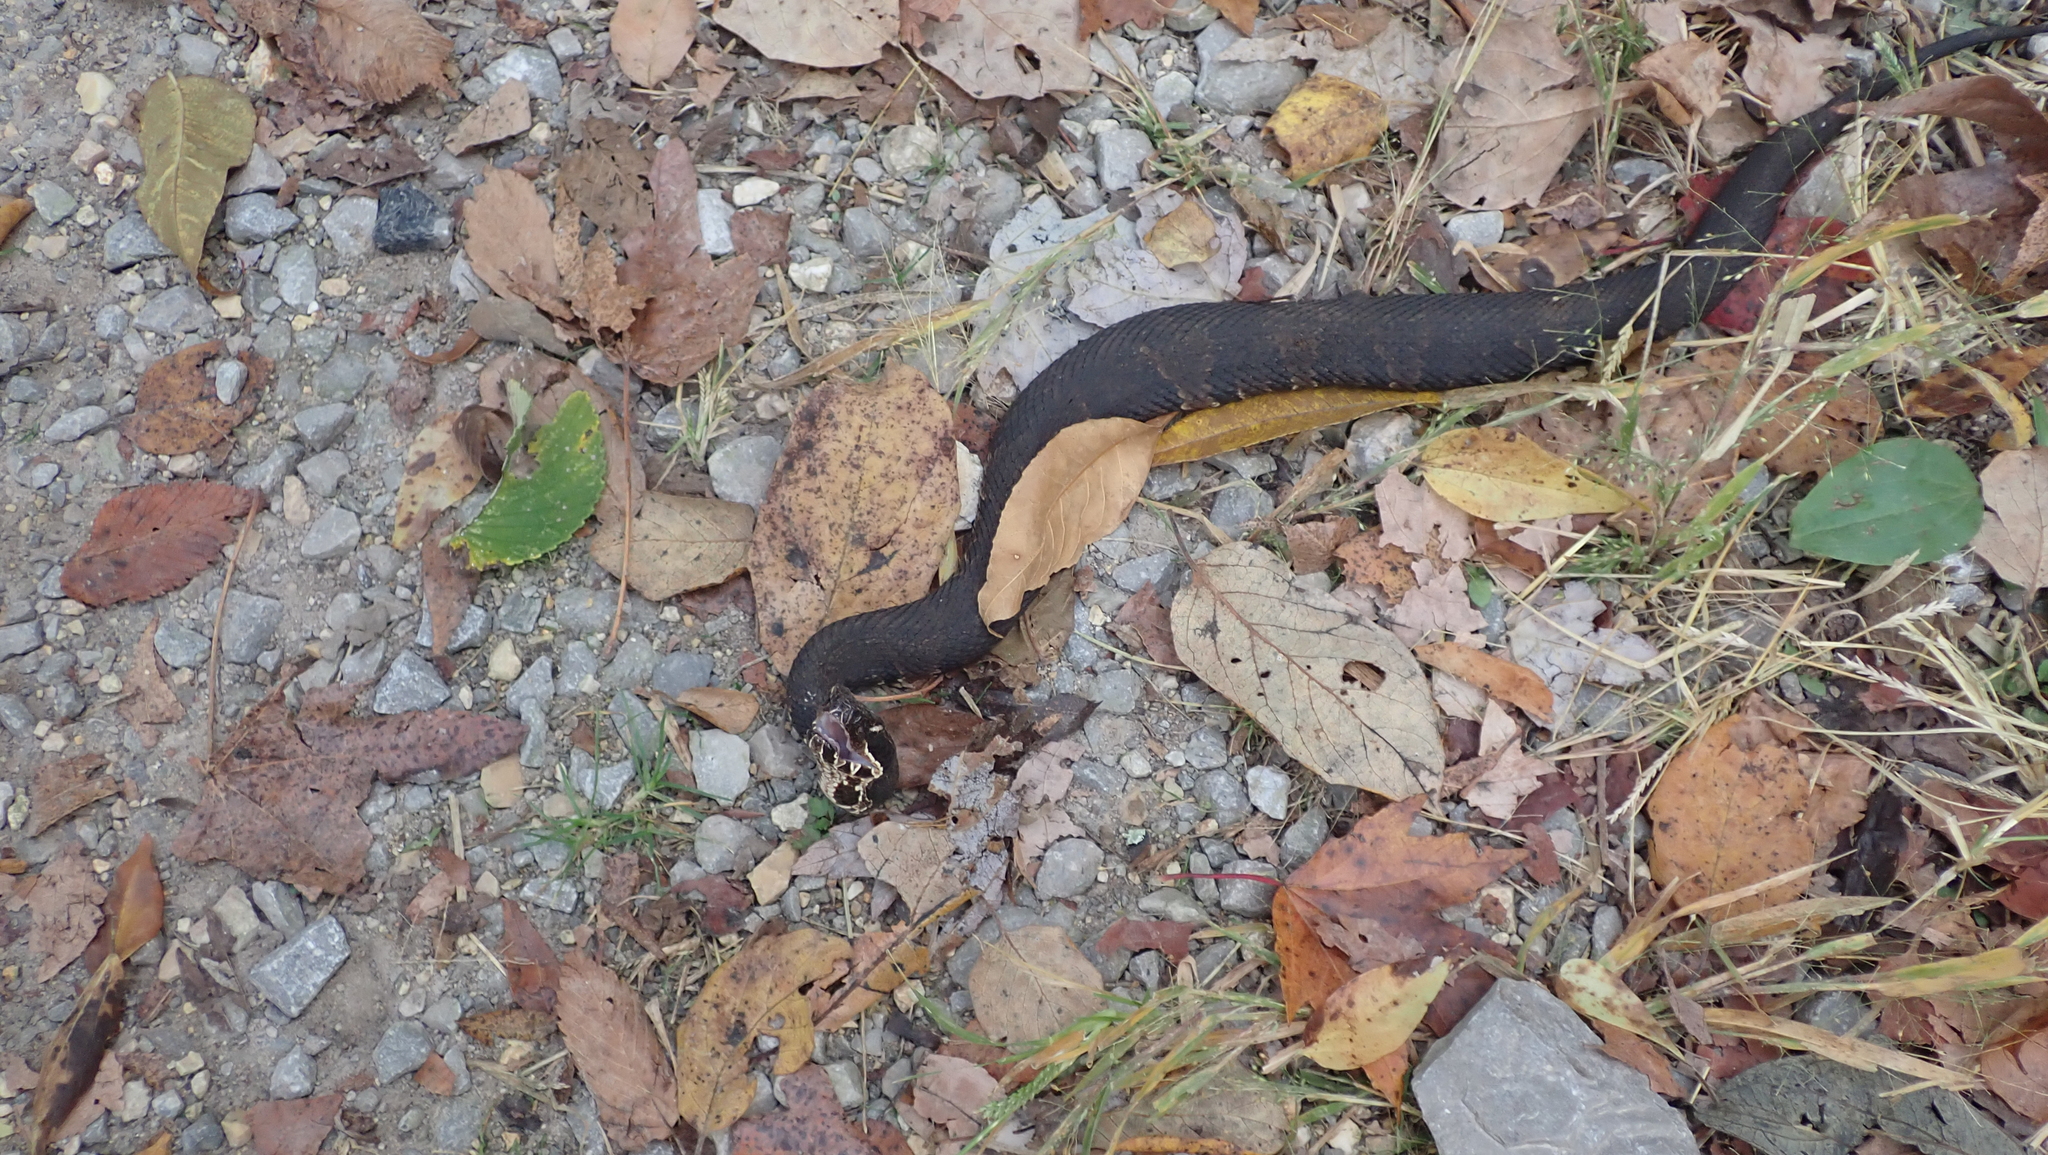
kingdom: Animalia
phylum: Chordata
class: Squamata
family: Viperidae
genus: Agkistrodon
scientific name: Agkistrodon piscivorus
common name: Cottonmouth
